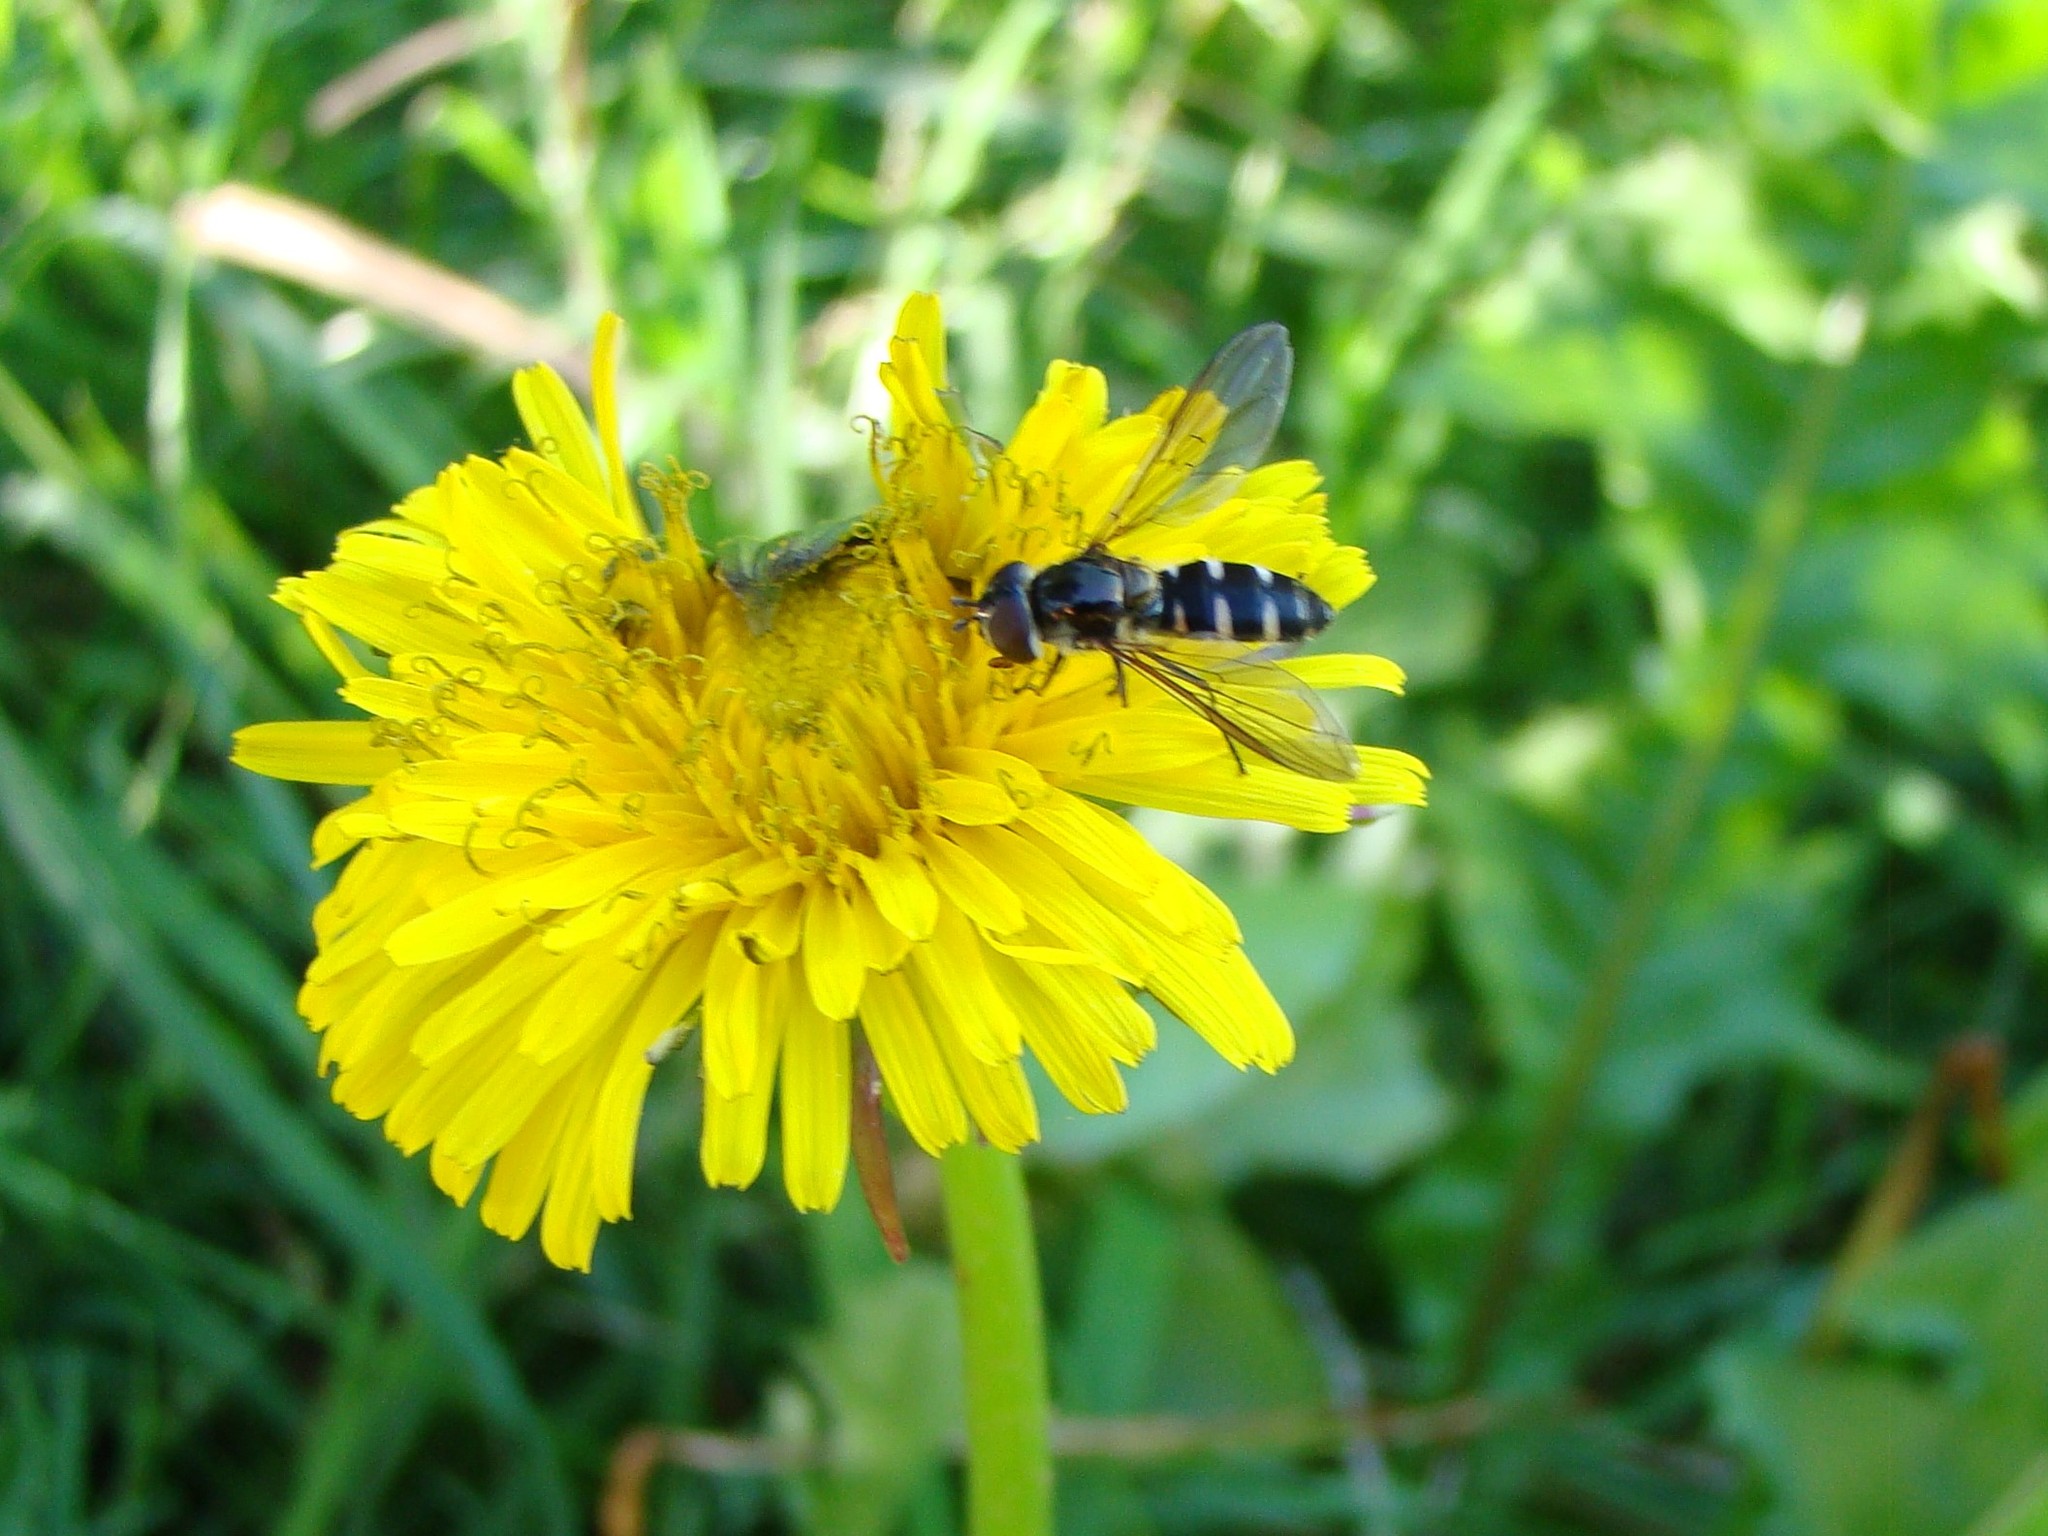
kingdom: Animalia
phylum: Arthropoda
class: Insecta
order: Diptera
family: Syrphidae
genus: Melangyna
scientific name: Melangyna novaezelandiae
